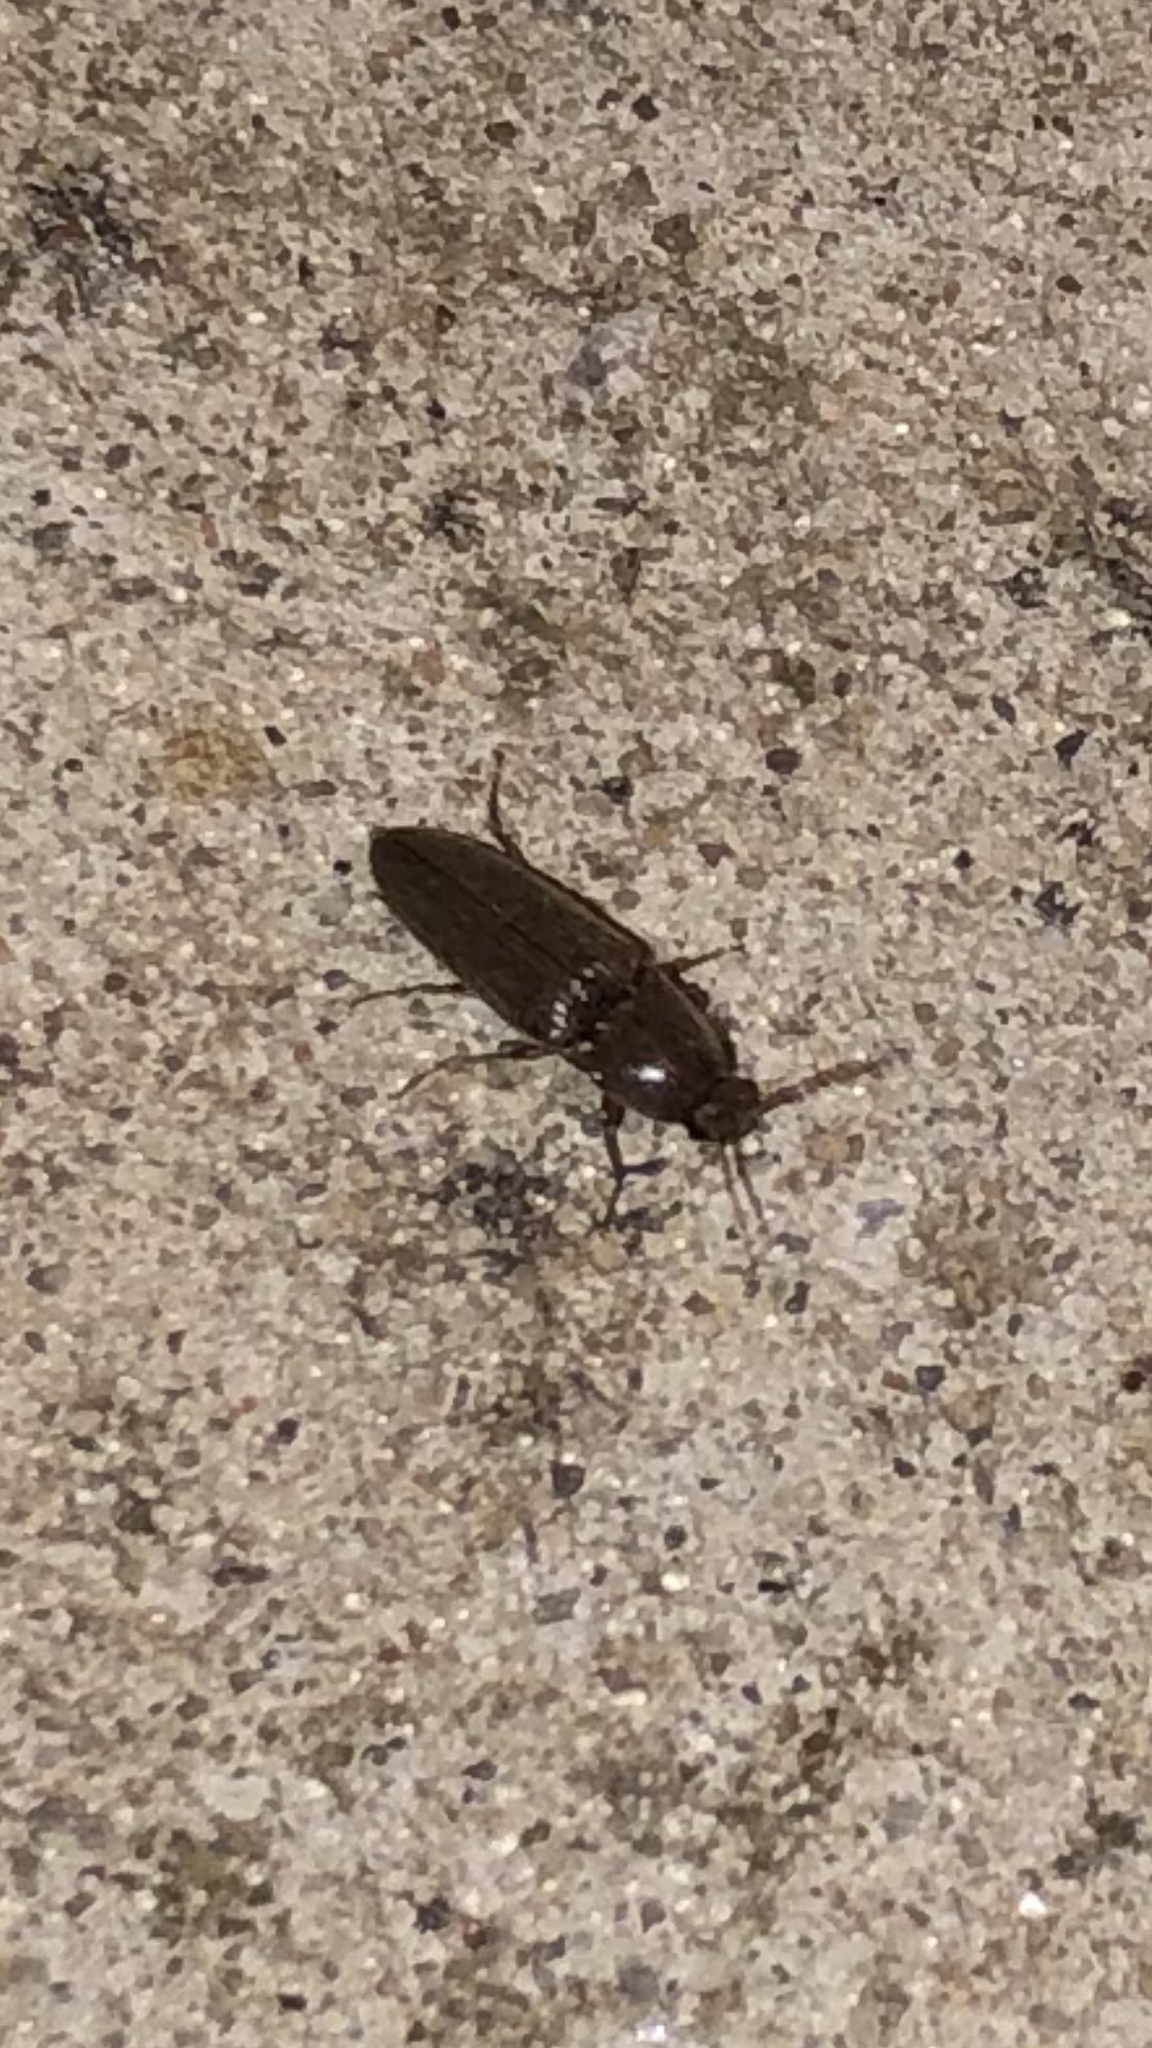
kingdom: Animalia
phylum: Arthropoda
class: Insecta
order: Coleoptera
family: Elateridae
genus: Melanotus
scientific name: Melanotus
